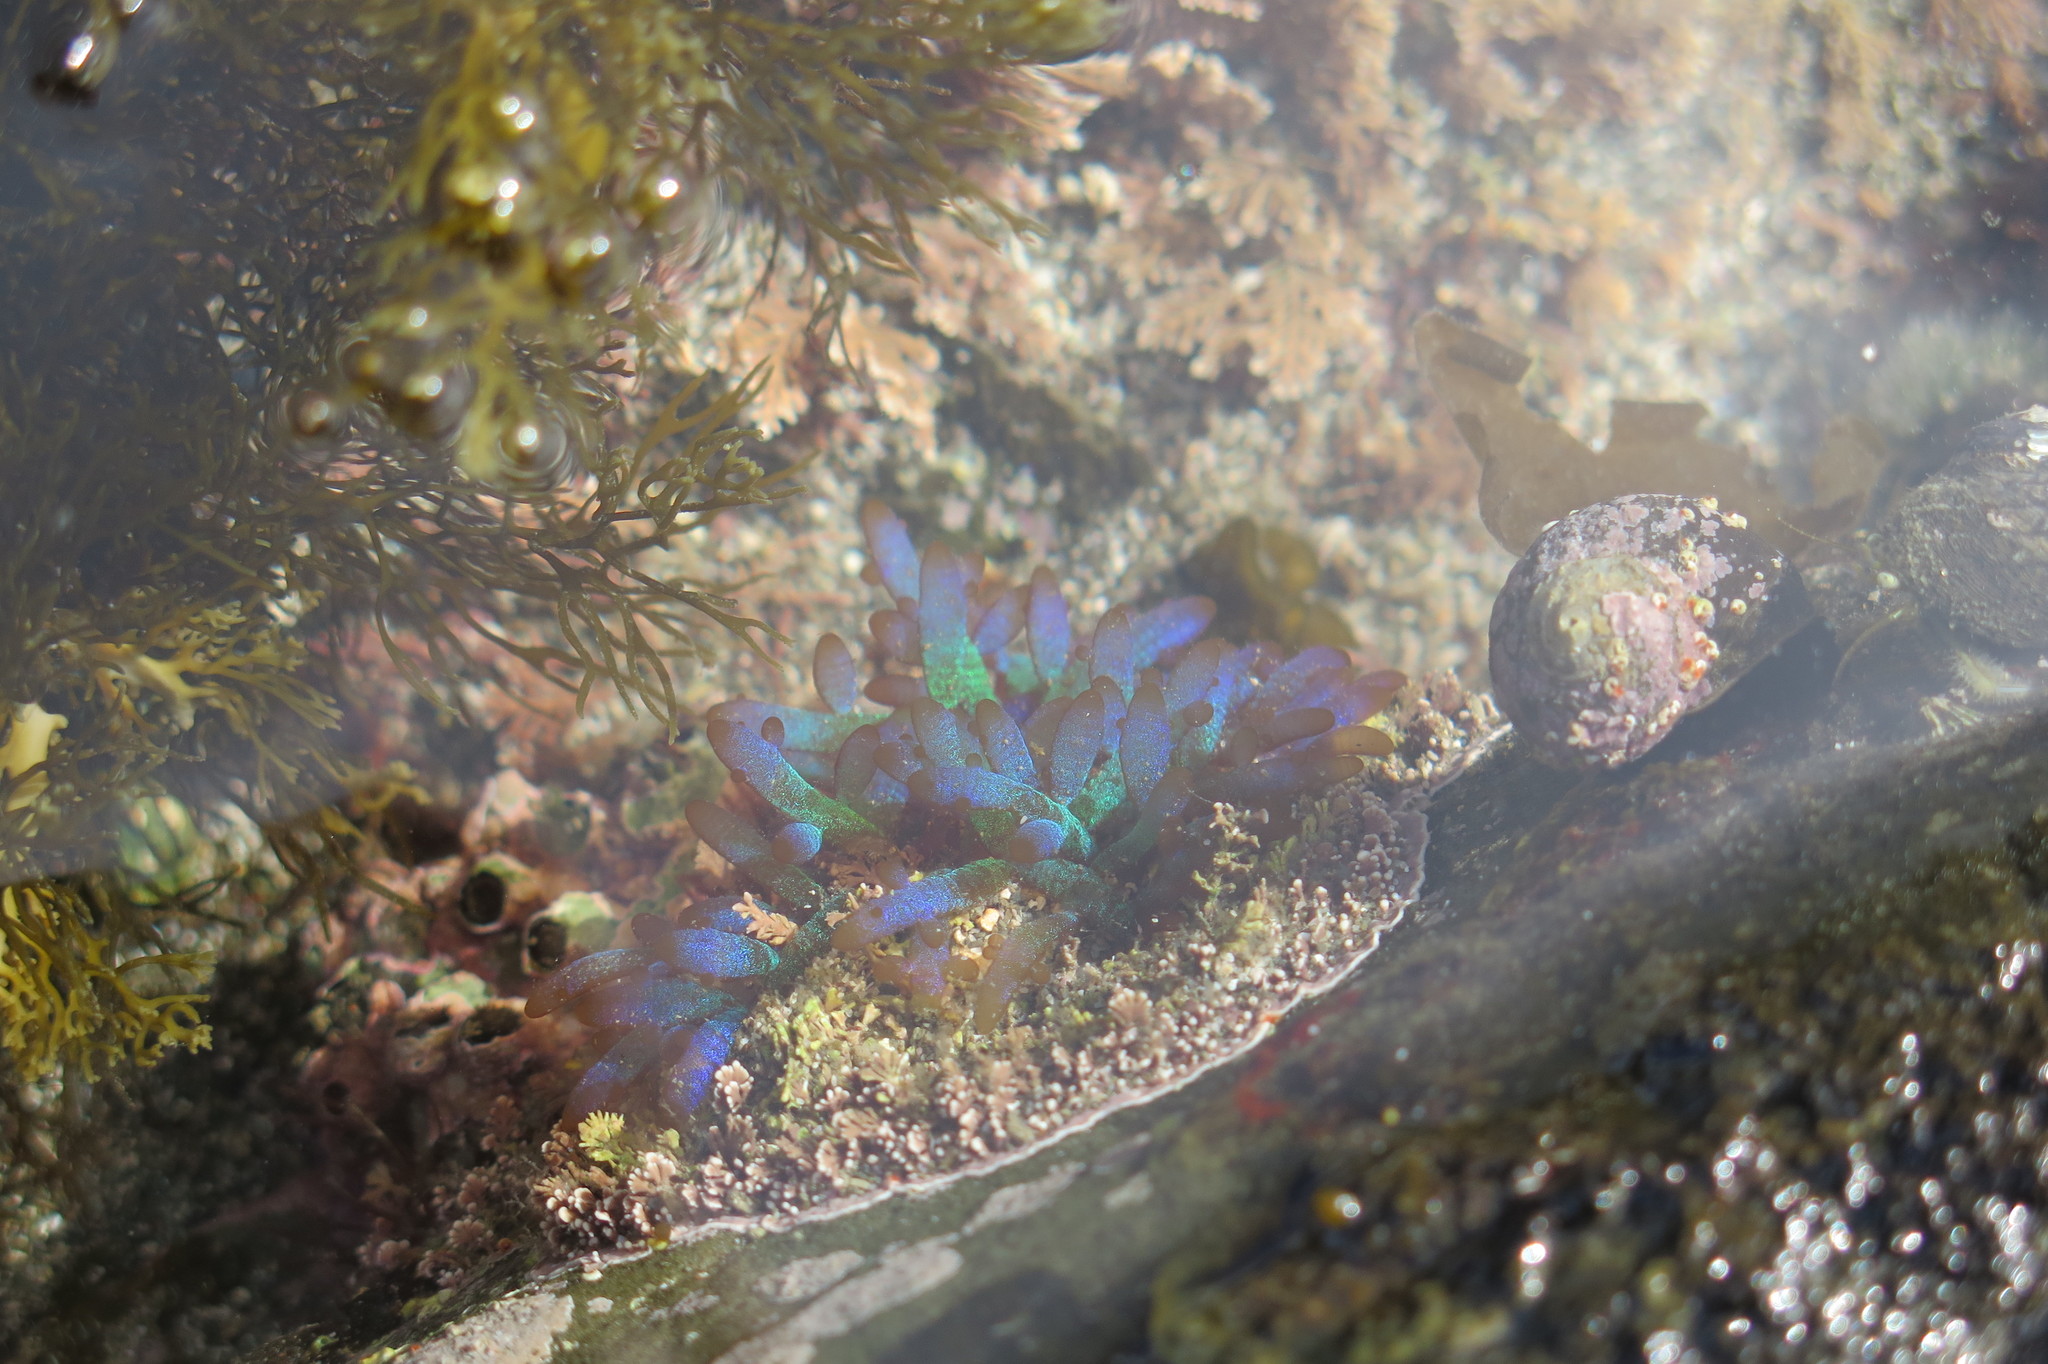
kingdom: Plantae
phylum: Rhodophyta
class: Florideophyceae
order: Rhodymeniales
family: Champiaceae
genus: Champia
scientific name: Champia laingii
